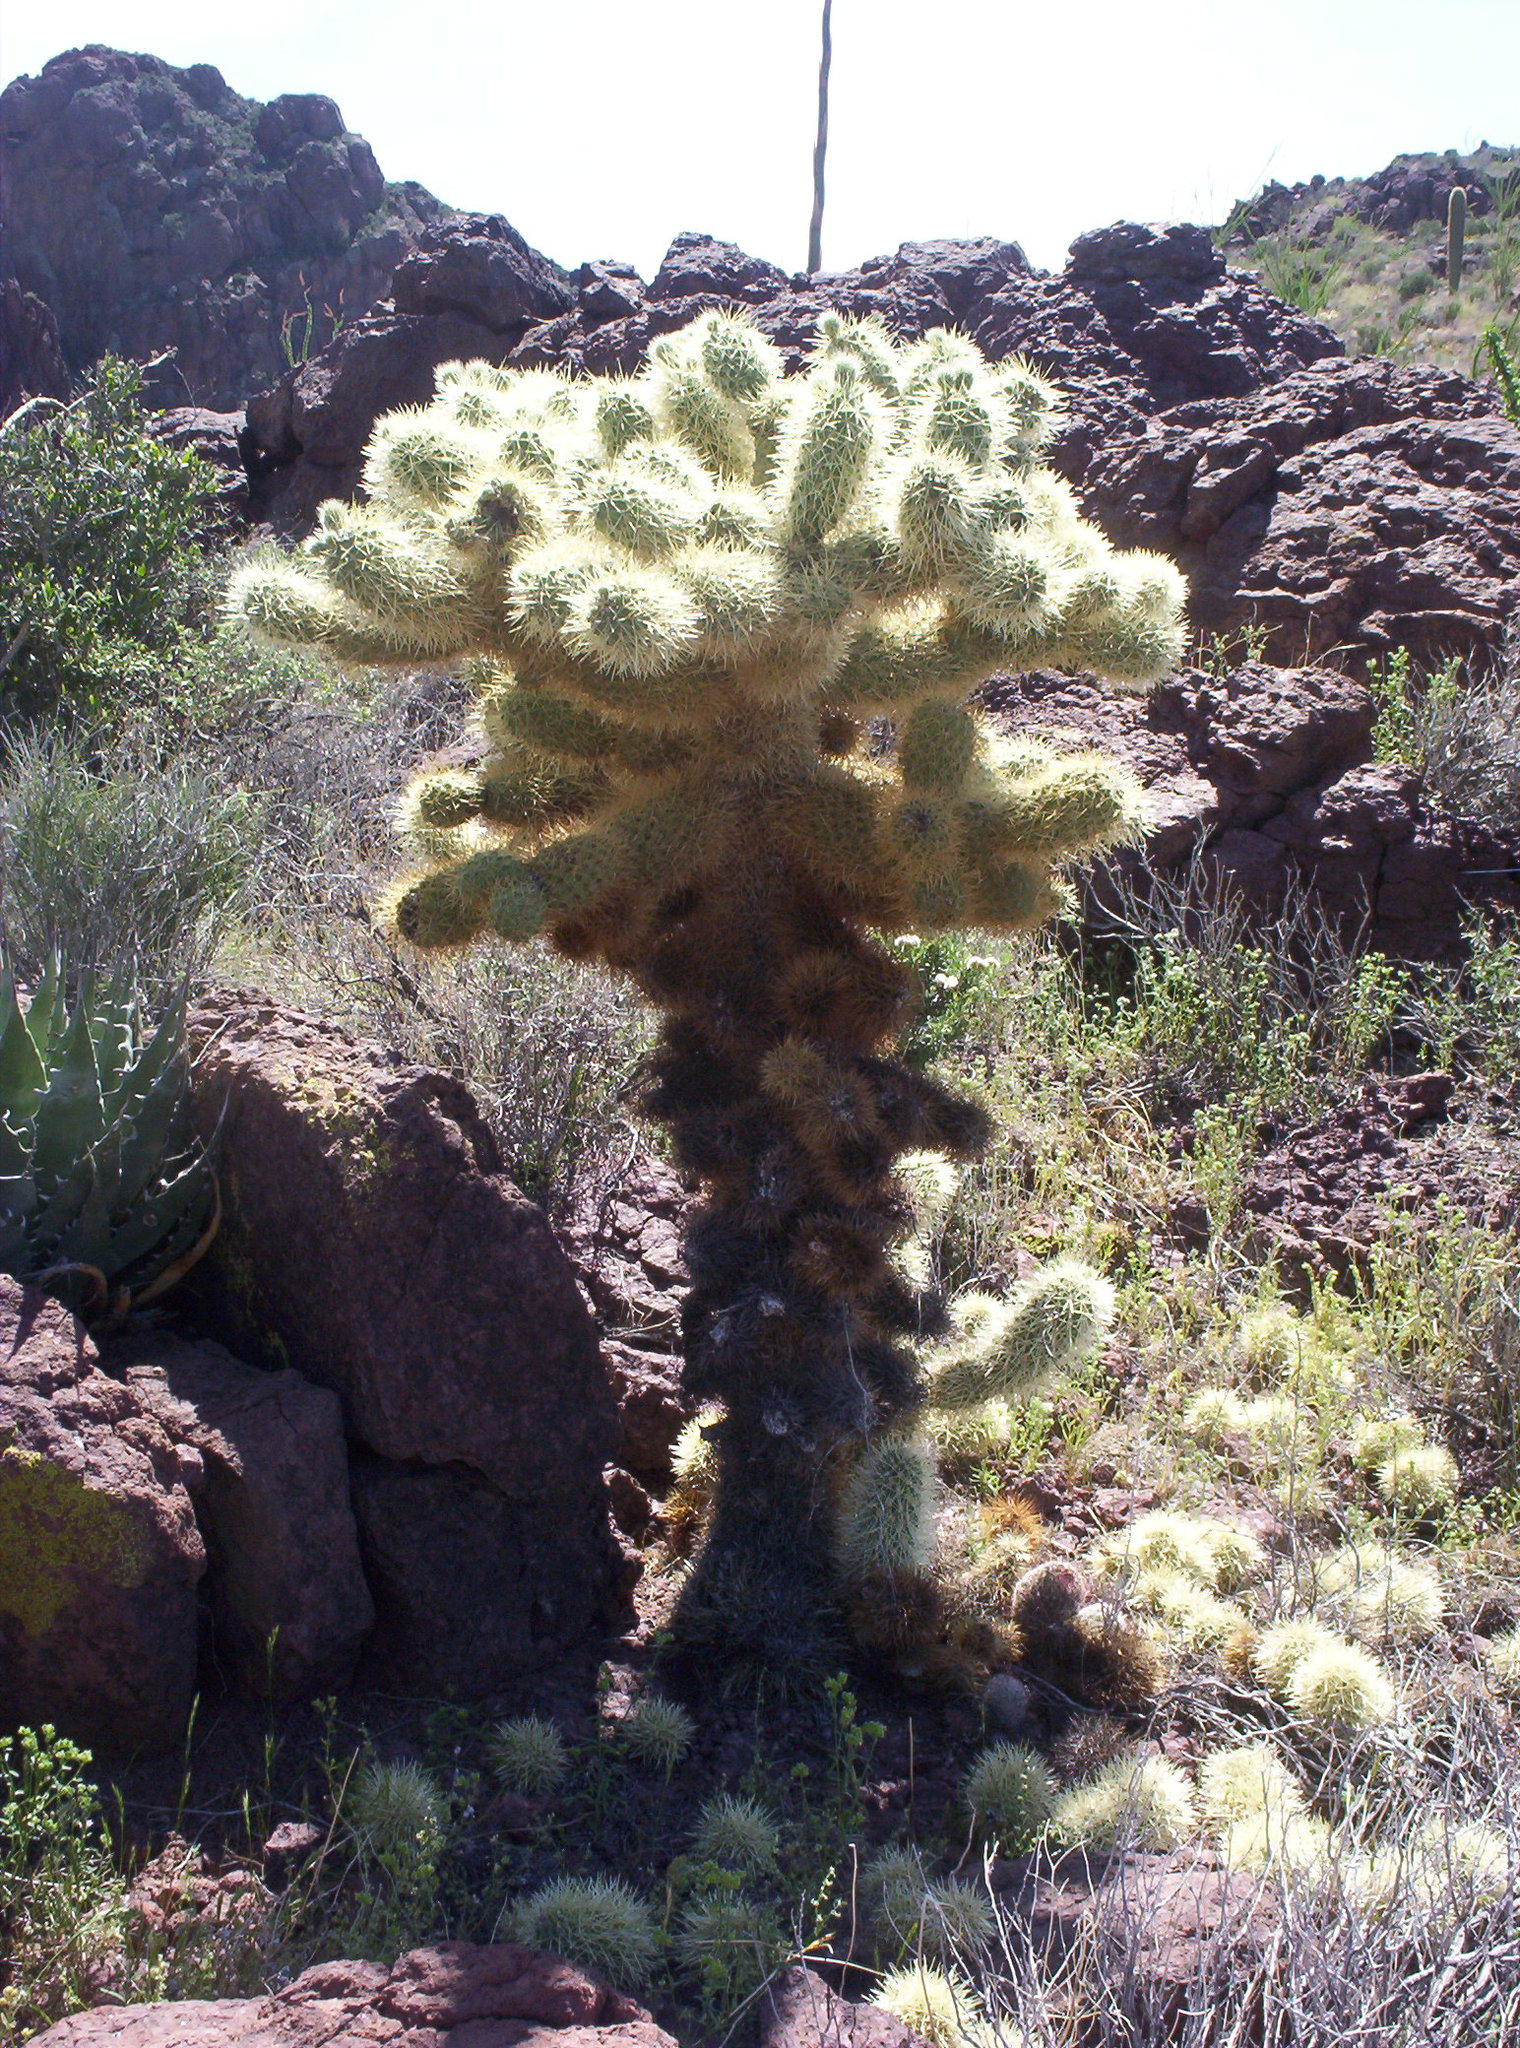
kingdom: Plantae
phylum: Tracheophyta
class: Magnoliopsida
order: Caryophyllales
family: Cactaceae
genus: Cylindropuntia
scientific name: Cylindropuntia fosbergii
